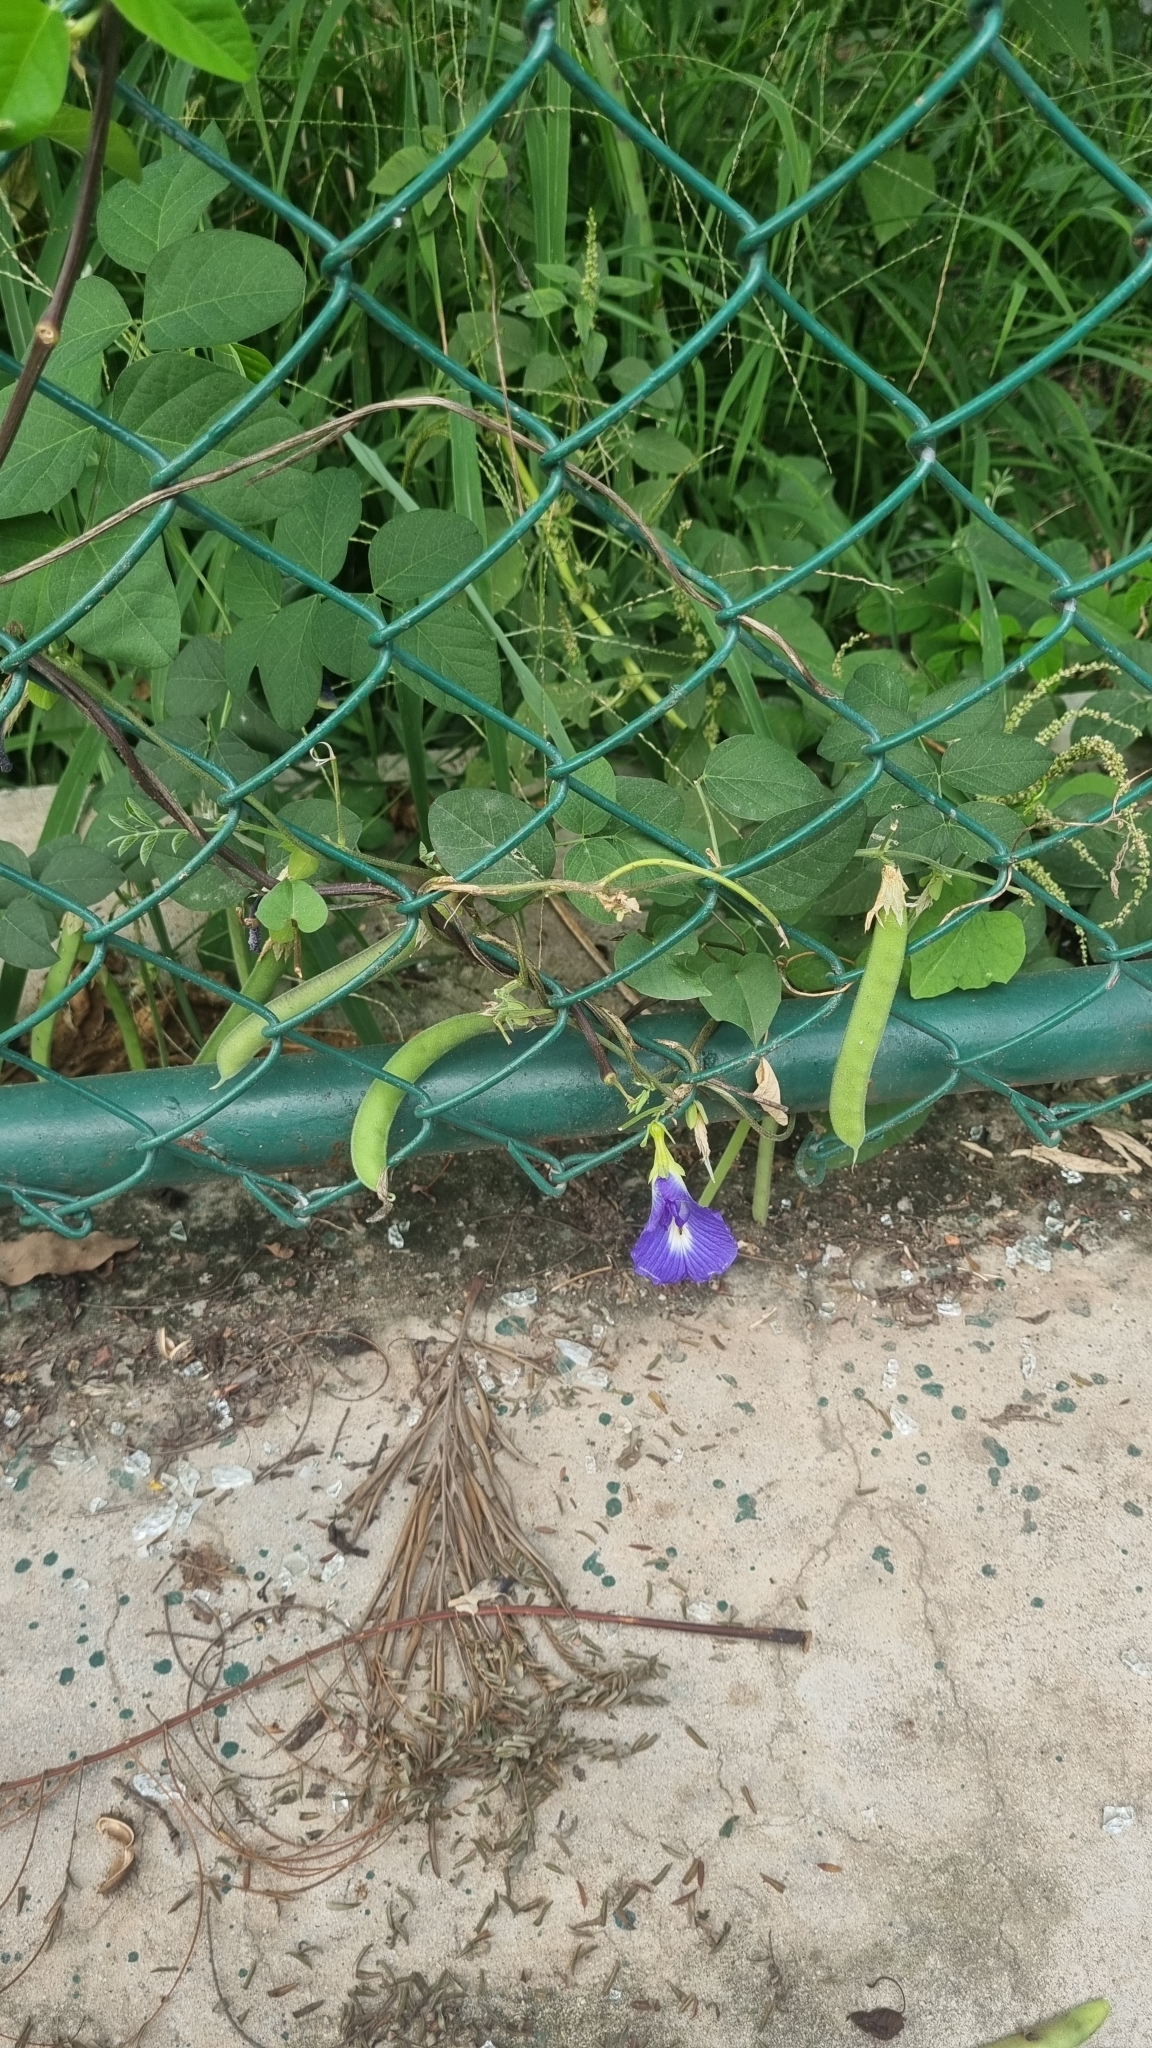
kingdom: Plantae
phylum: Tracheophyta
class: Magnoliopsida
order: Fabales
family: Fabaceae
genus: Clitoria
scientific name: Clitoria ternatea
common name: Asian pigeonwings
